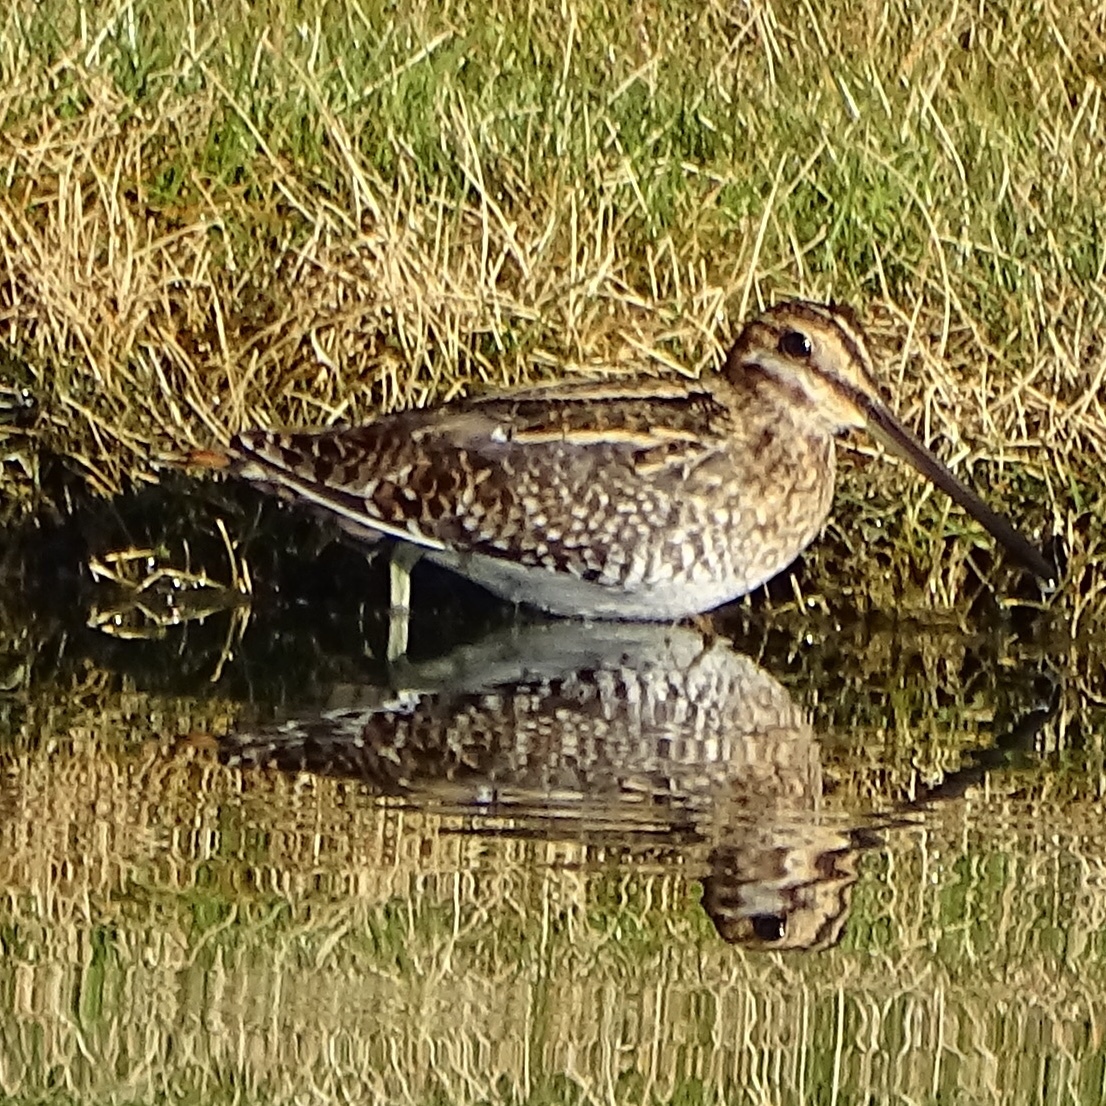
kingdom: Animalia
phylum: Chordata
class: Aves
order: Charadriiformes
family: Scolopacidae
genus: Gallinago
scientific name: Gallinago delicata
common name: Wilson's snipe
